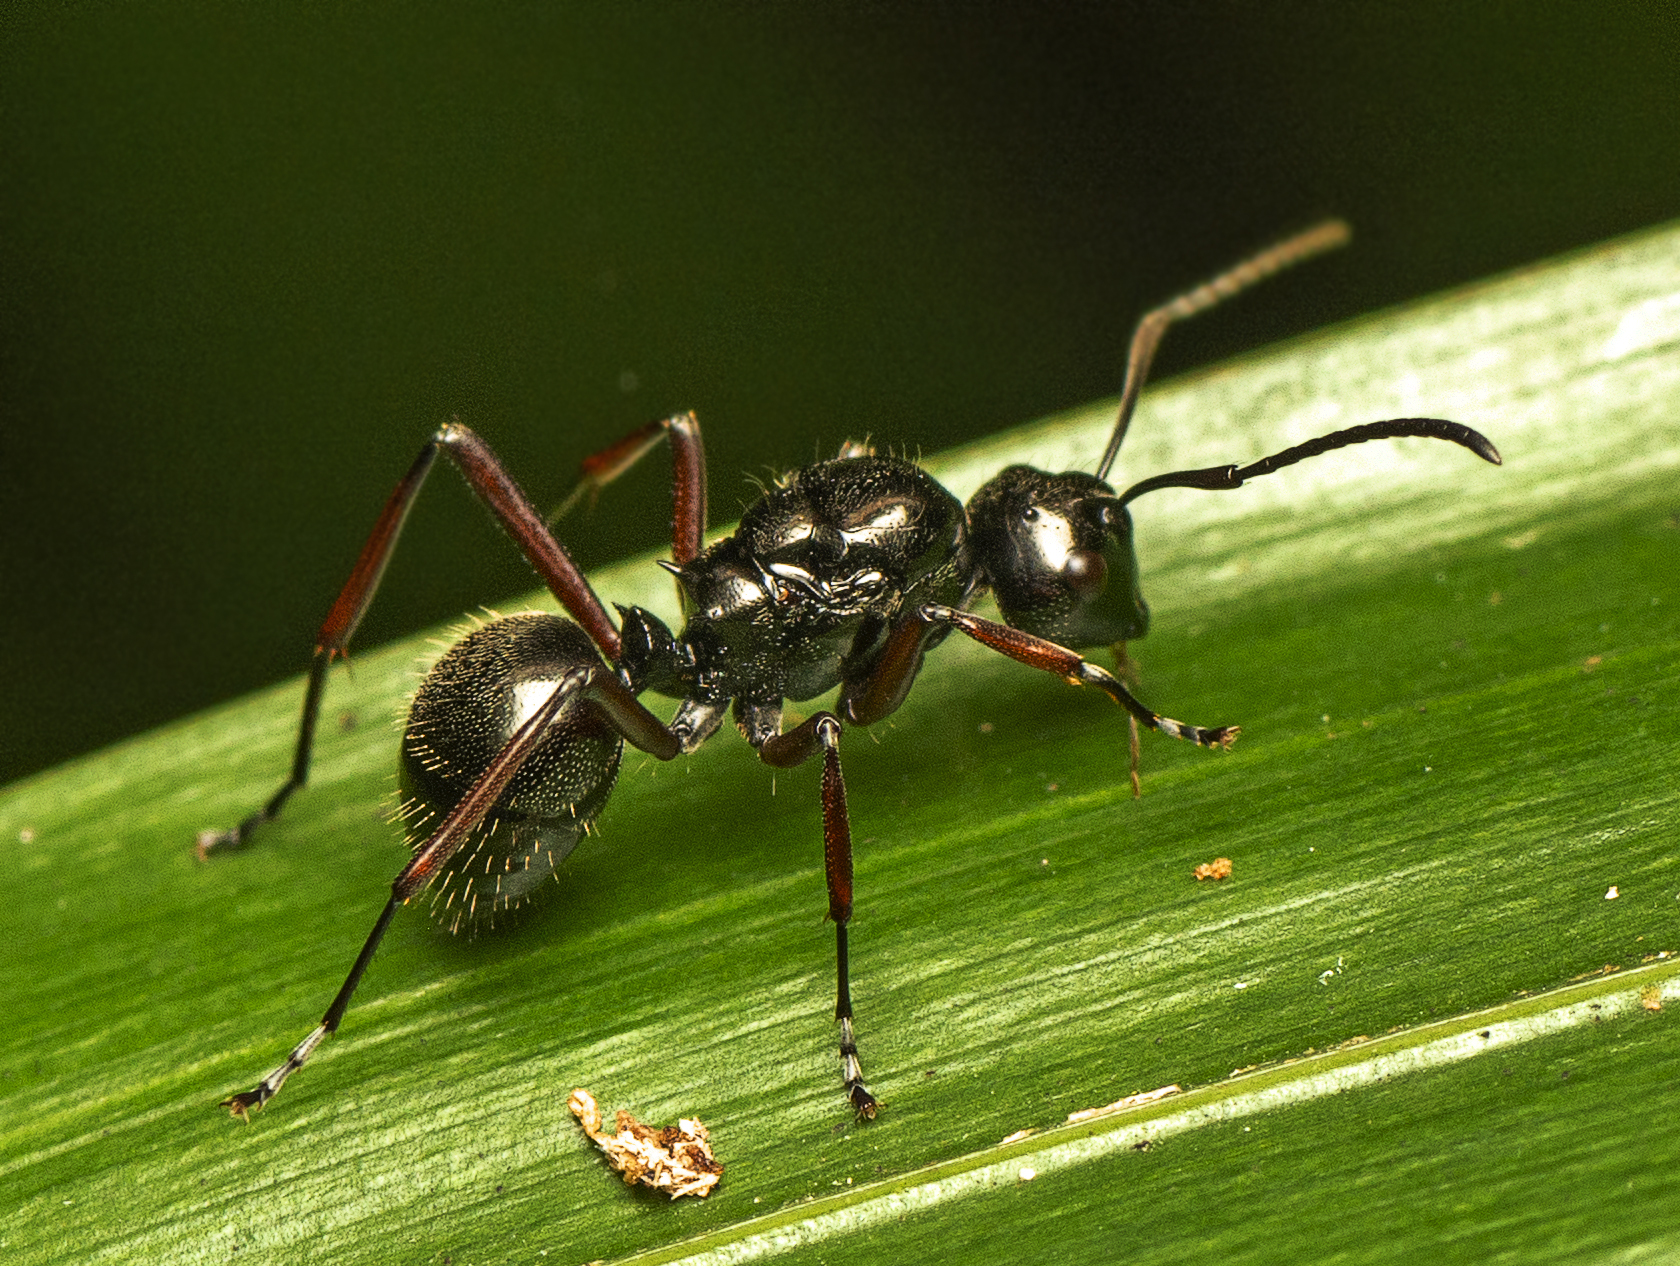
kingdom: Animalia
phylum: Arthropoda
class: Insecta
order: Hymenoptera
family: Formicidae
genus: Polyrhachis
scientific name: Polyrhachis monteithi
